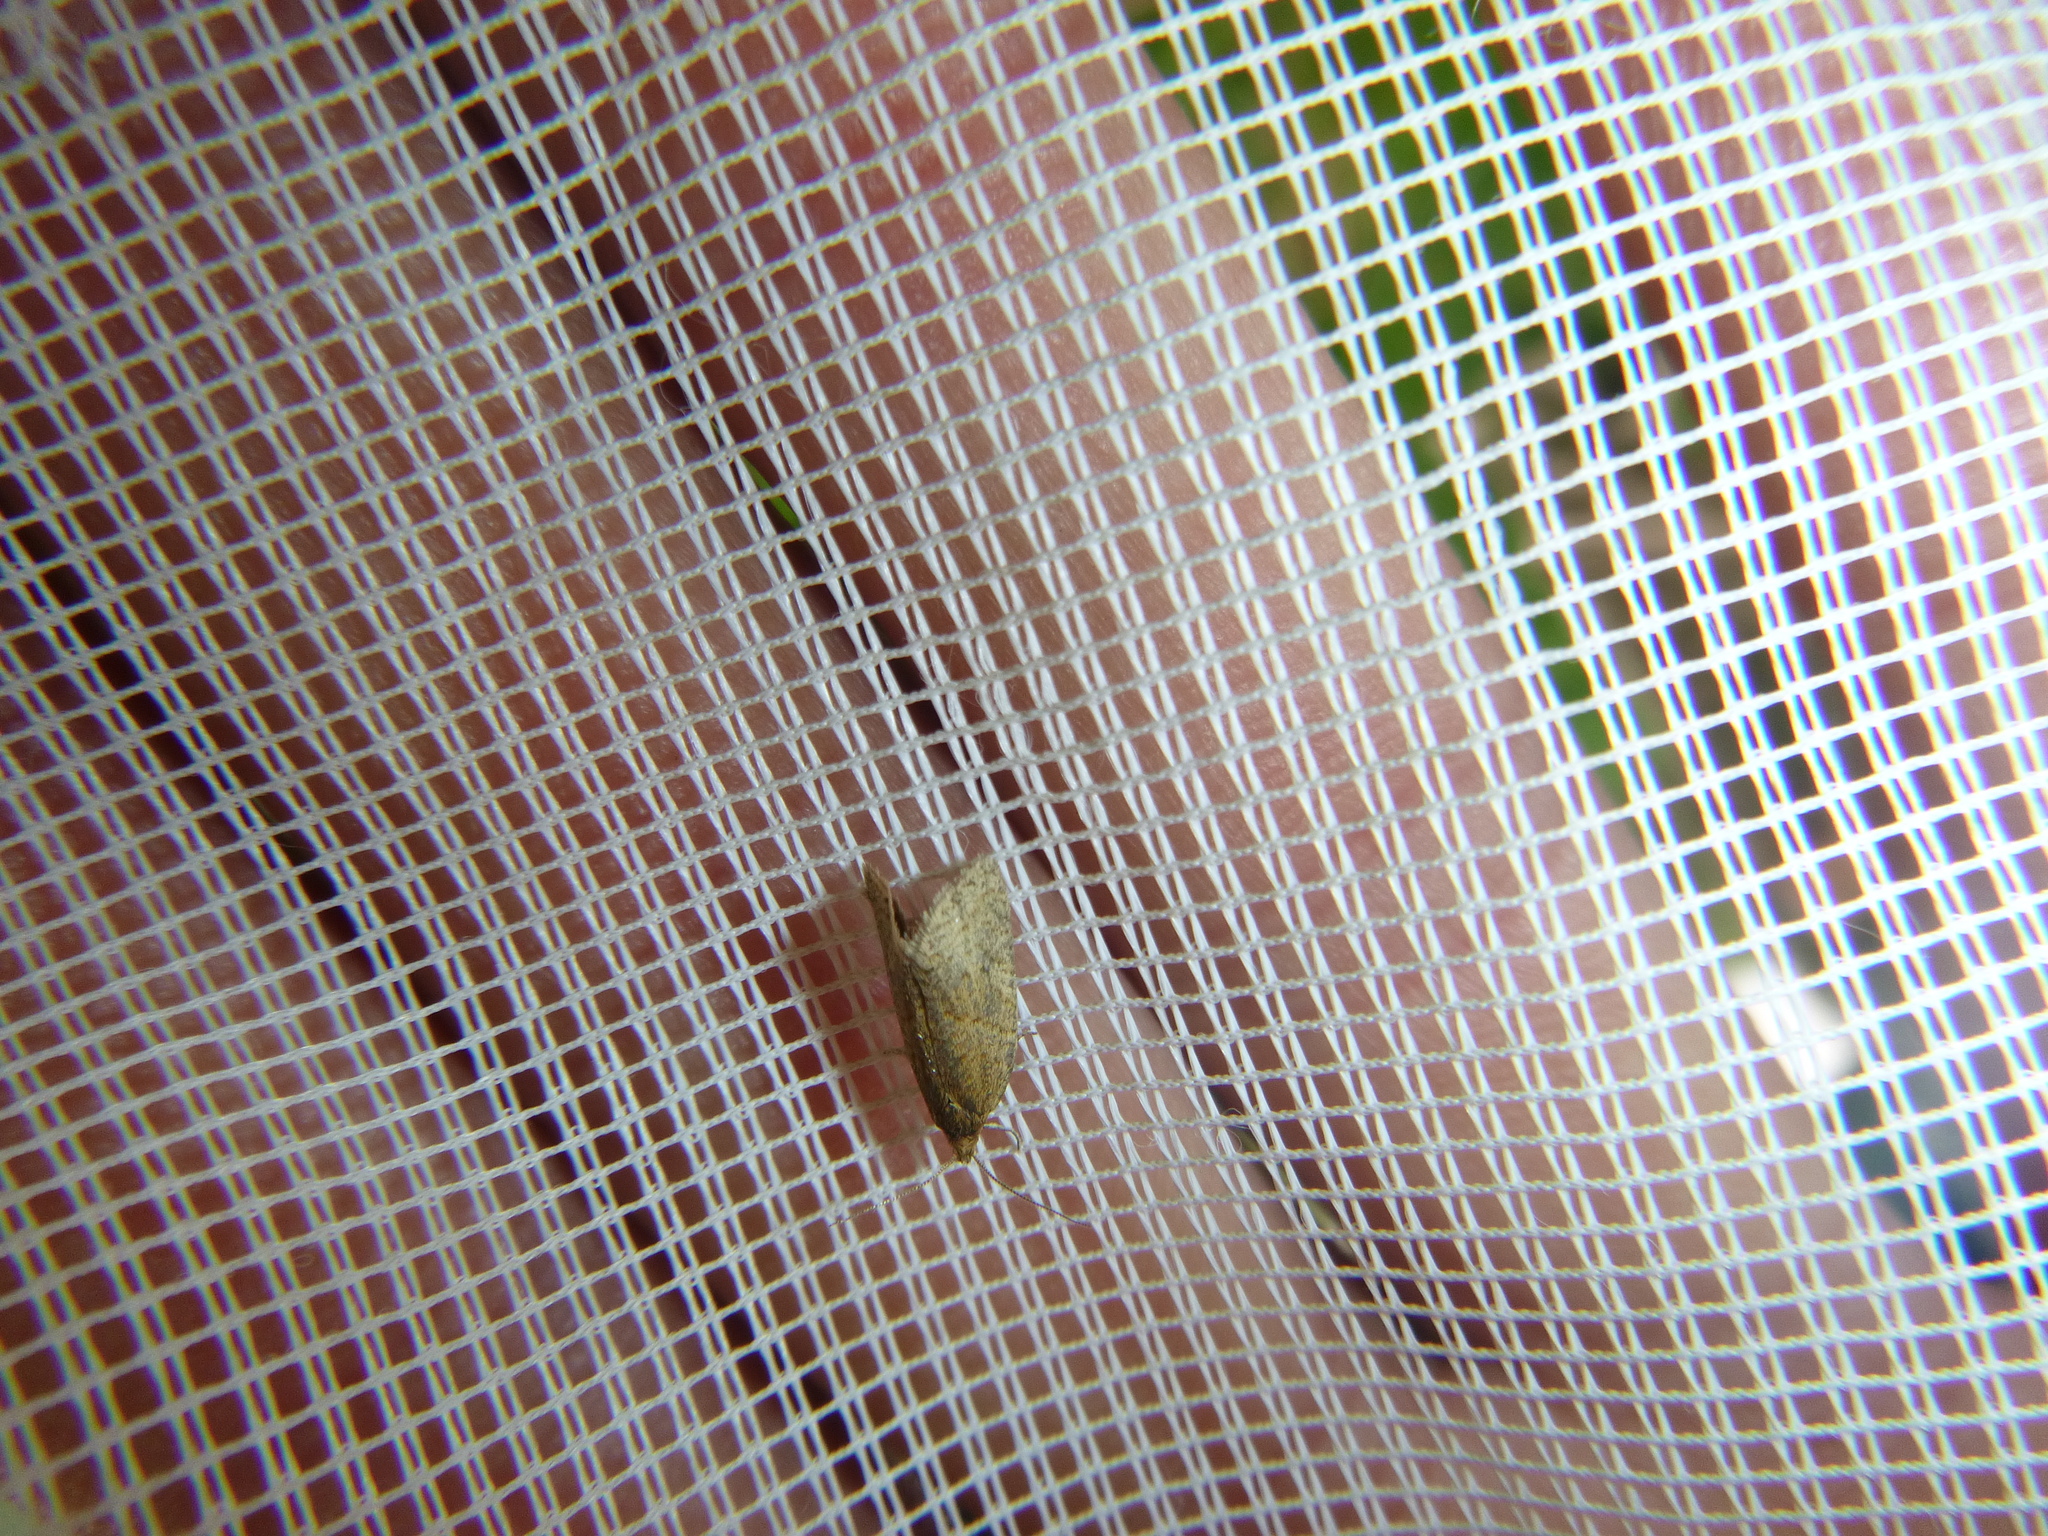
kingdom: Animalia
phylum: Arthropoda
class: Insecta
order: Lepidoptera
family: Tortricidae
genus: Clepsis
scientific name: Clepsis senecionana
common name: Obscure tortrix
